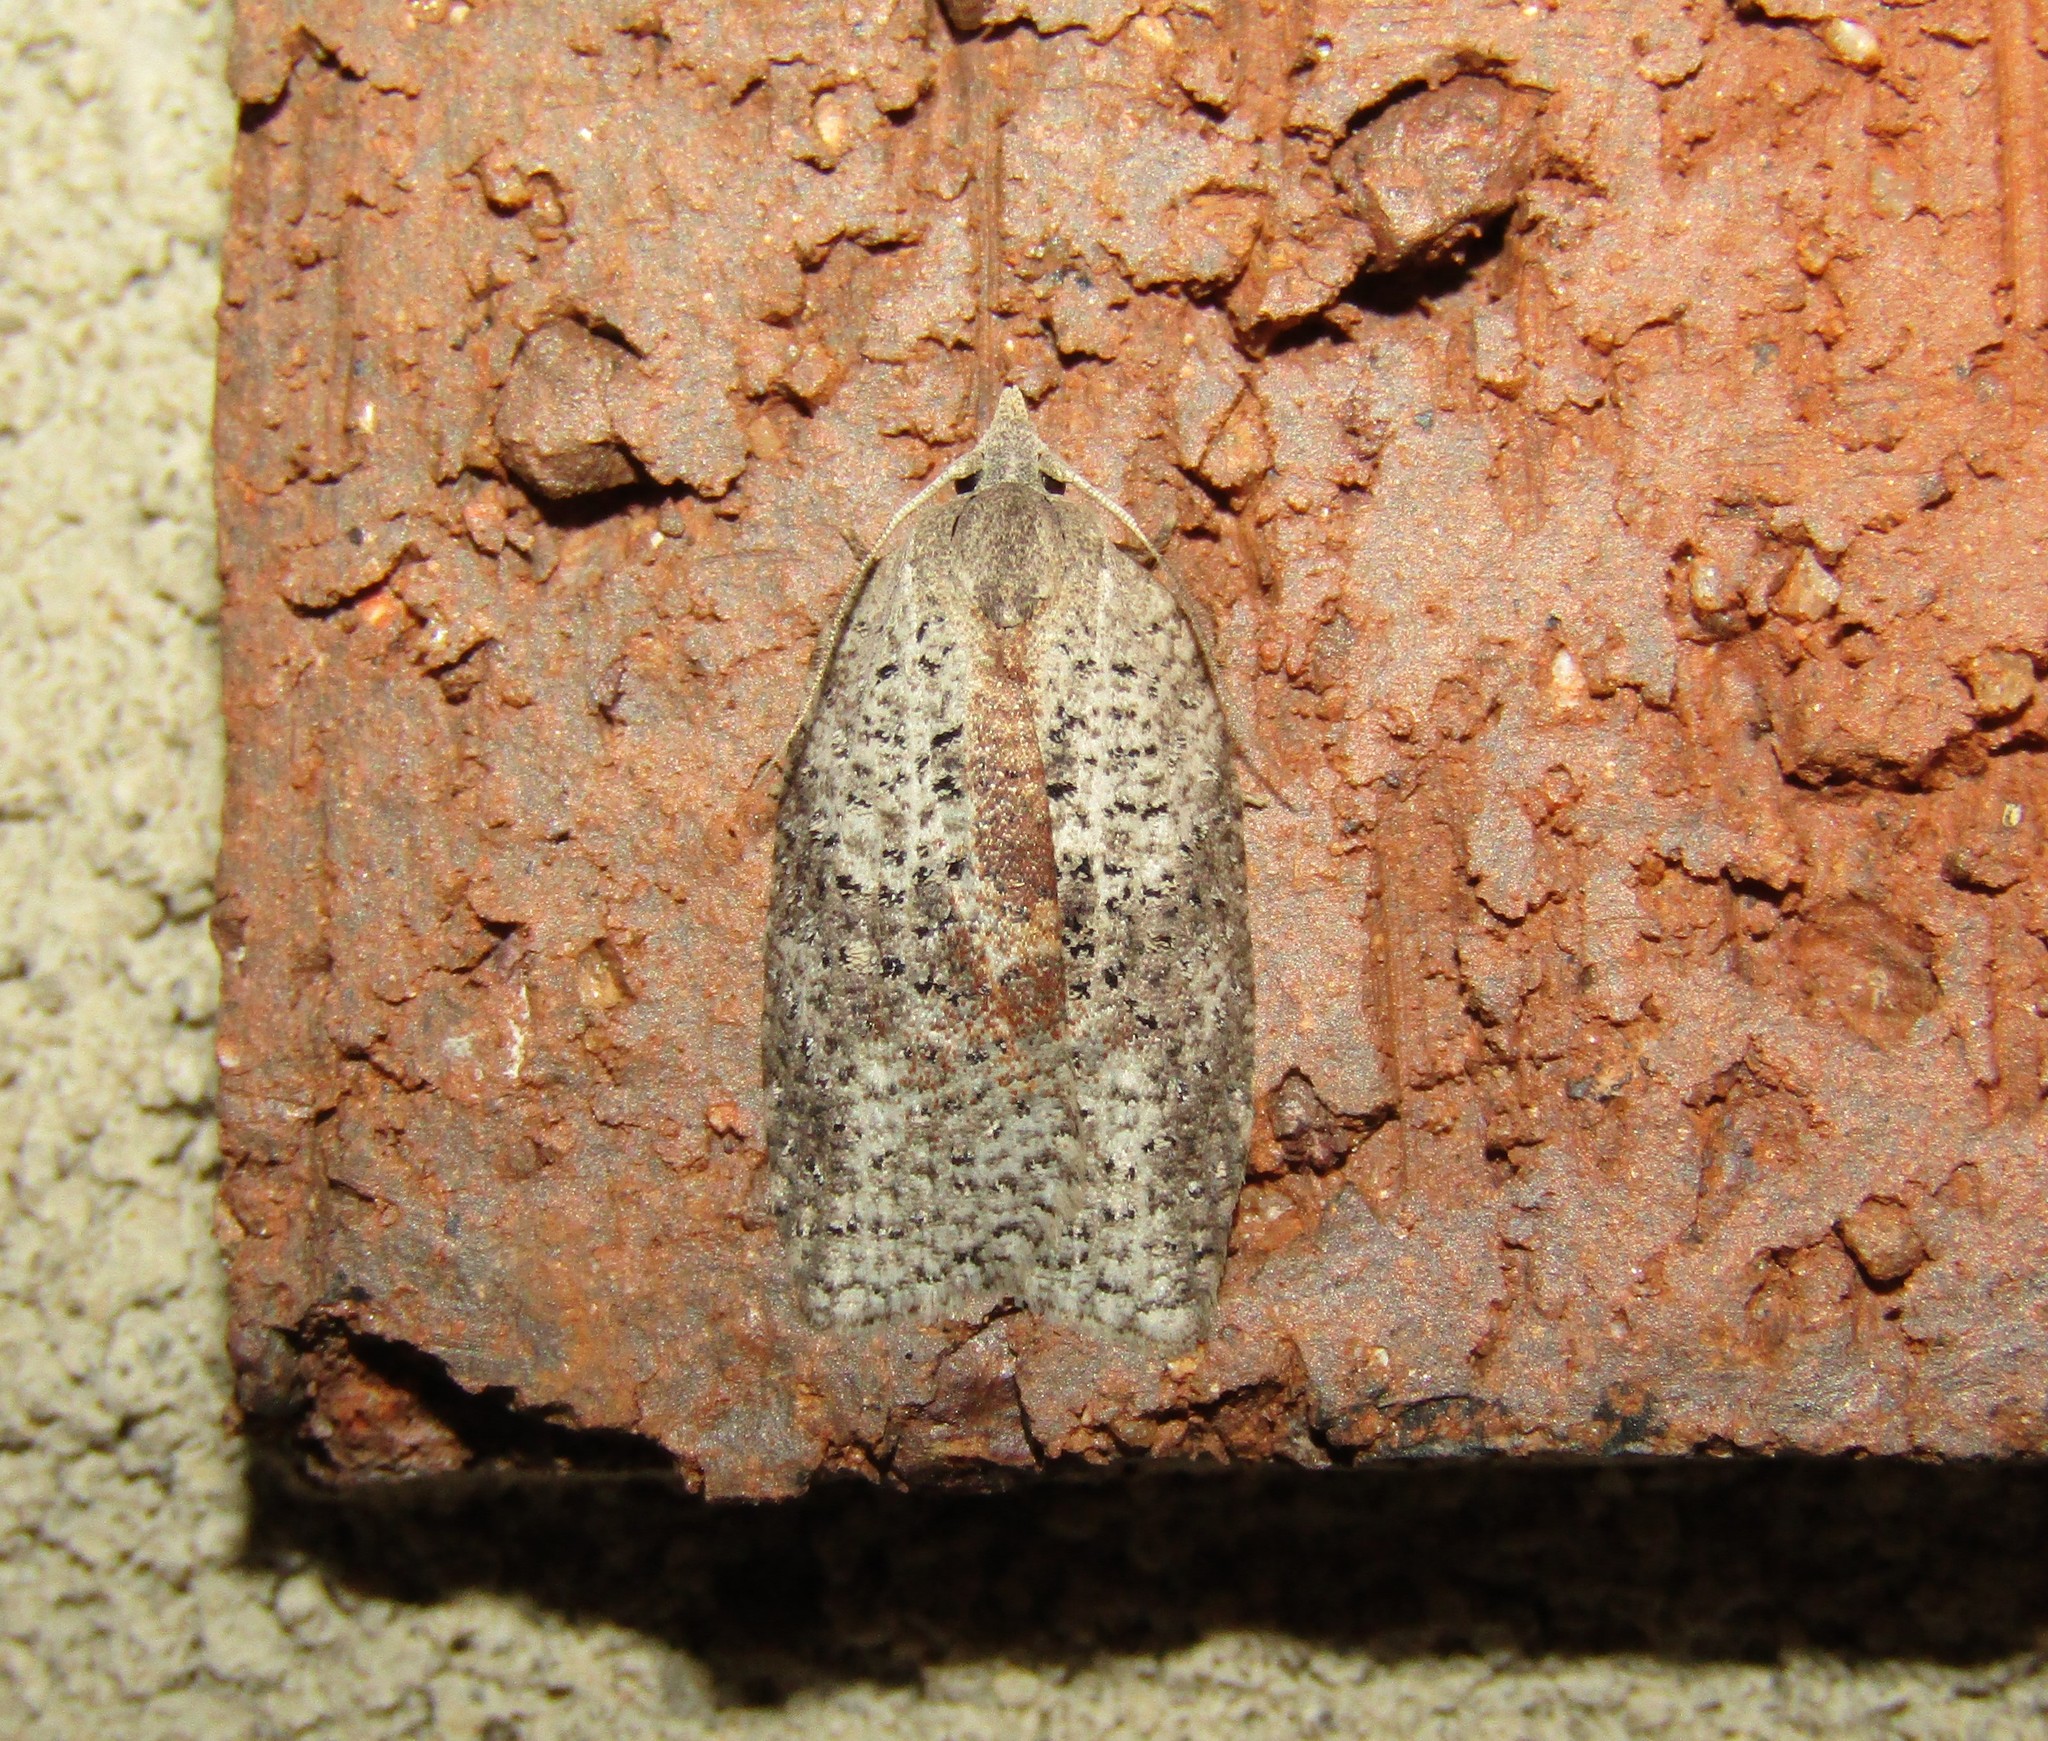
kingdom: Animalia
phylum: Arthropoda
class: Insecta
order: Lepidoptera
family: Tortricidae
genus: Amorbia
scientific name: Amorbia humerosana
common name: White-lined leafroller moth
